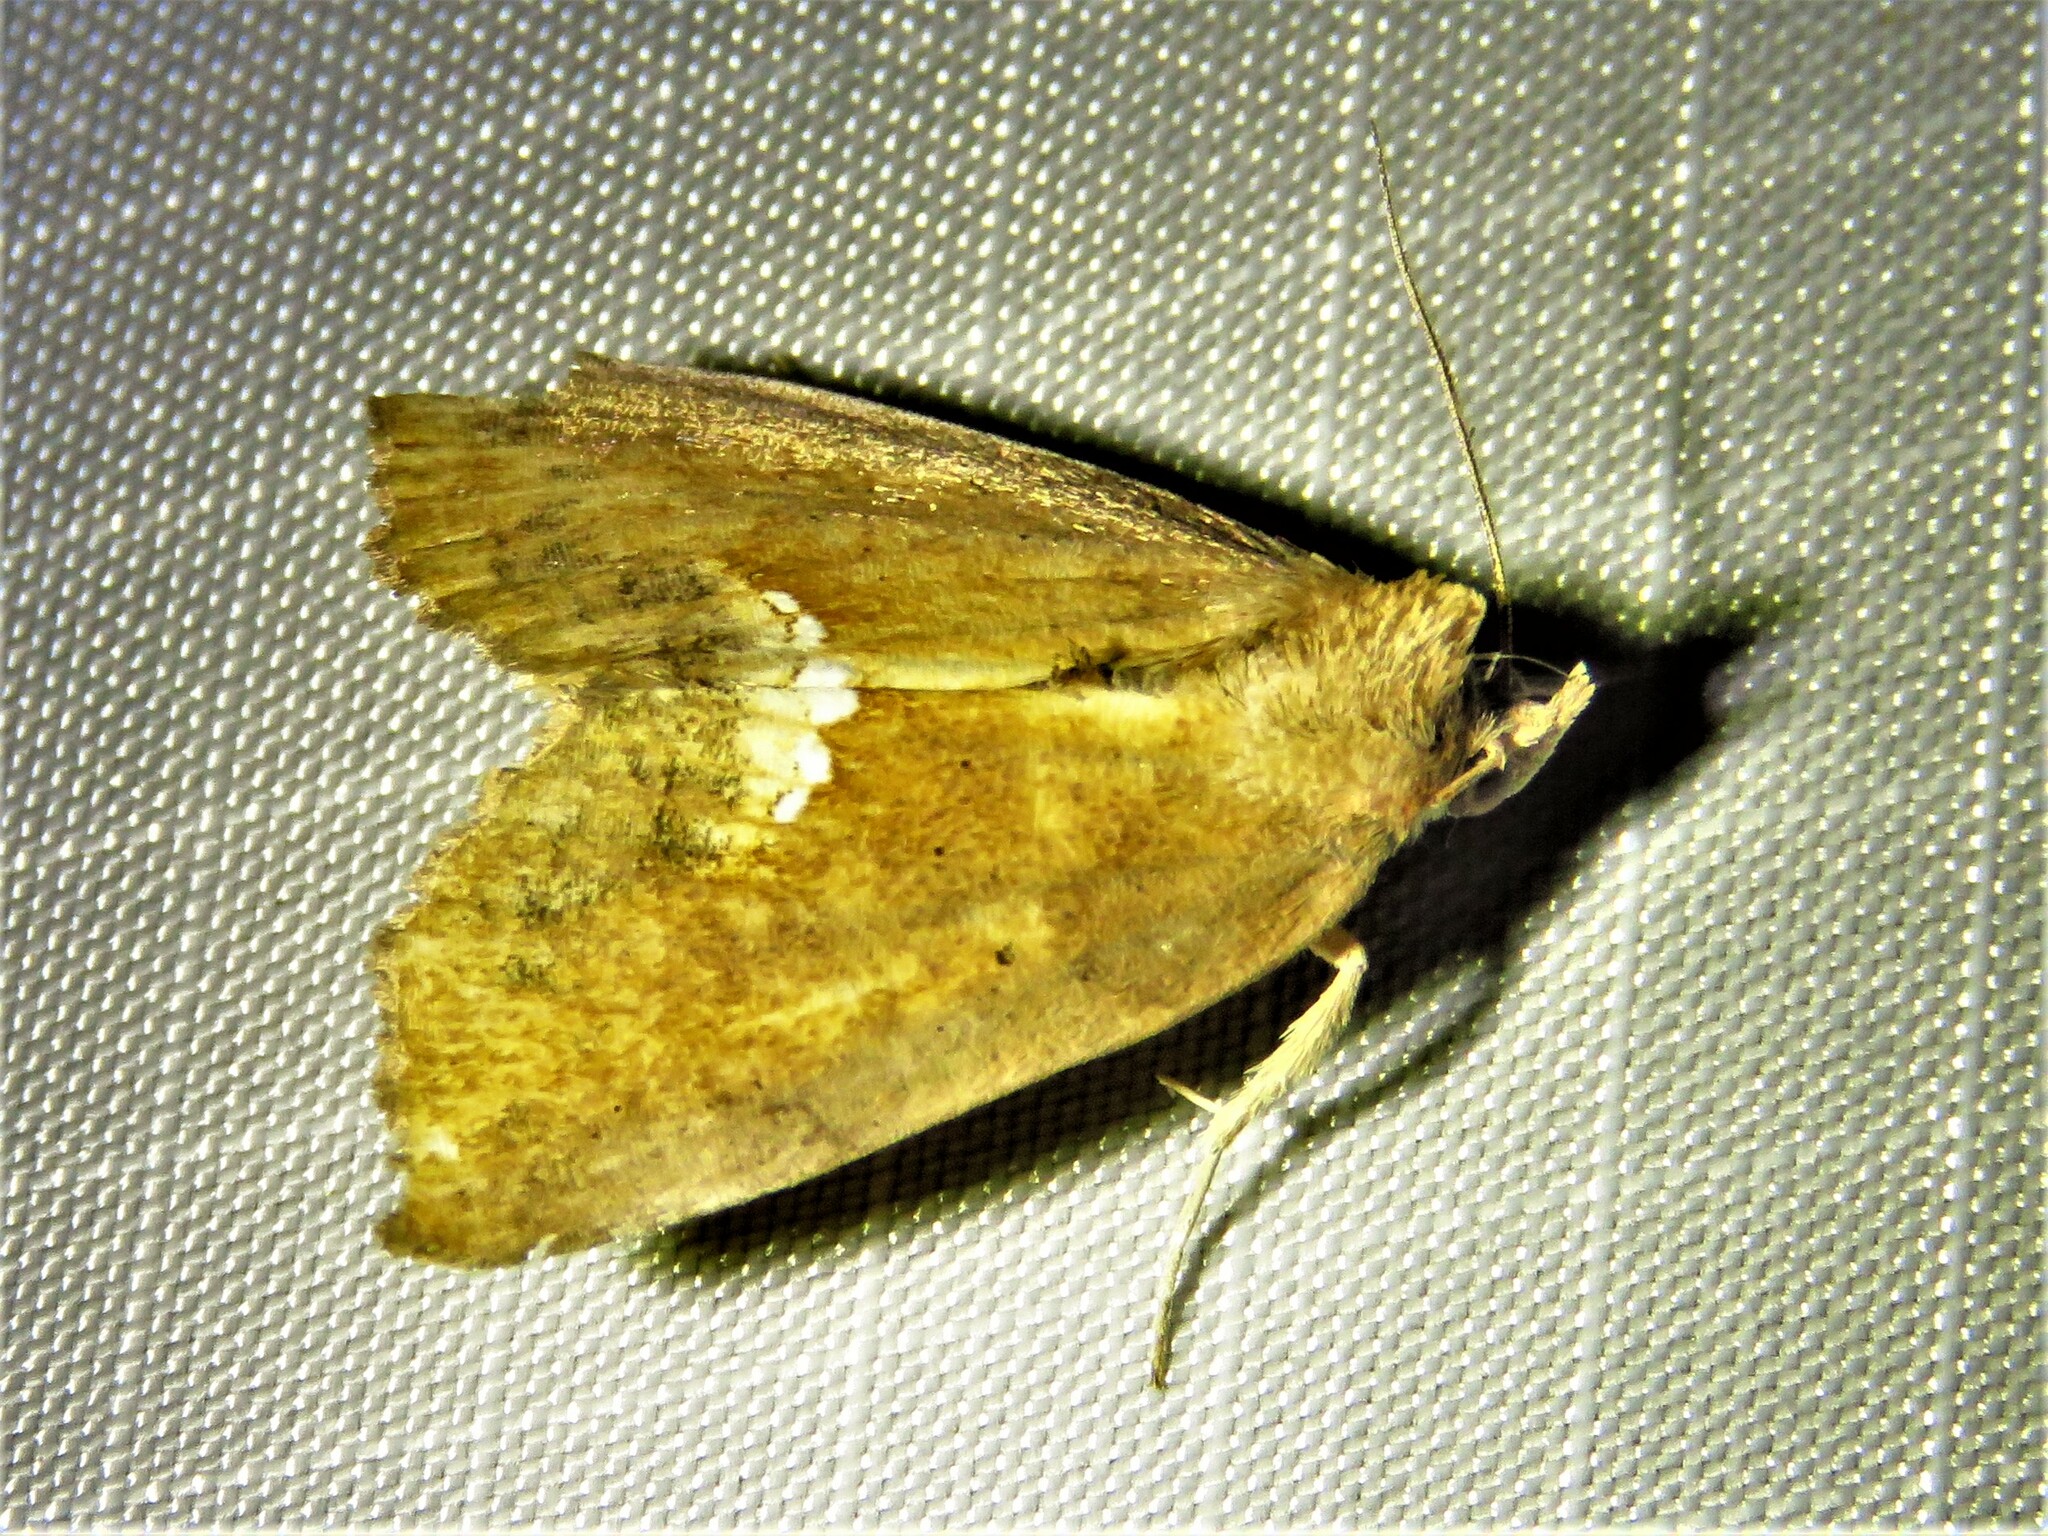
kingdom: Animalia
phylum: Arthropoda
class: Insecta
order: Lepidoptera
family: Erebidae
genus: Hypsoropha
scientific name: Hypsoropha hormos
